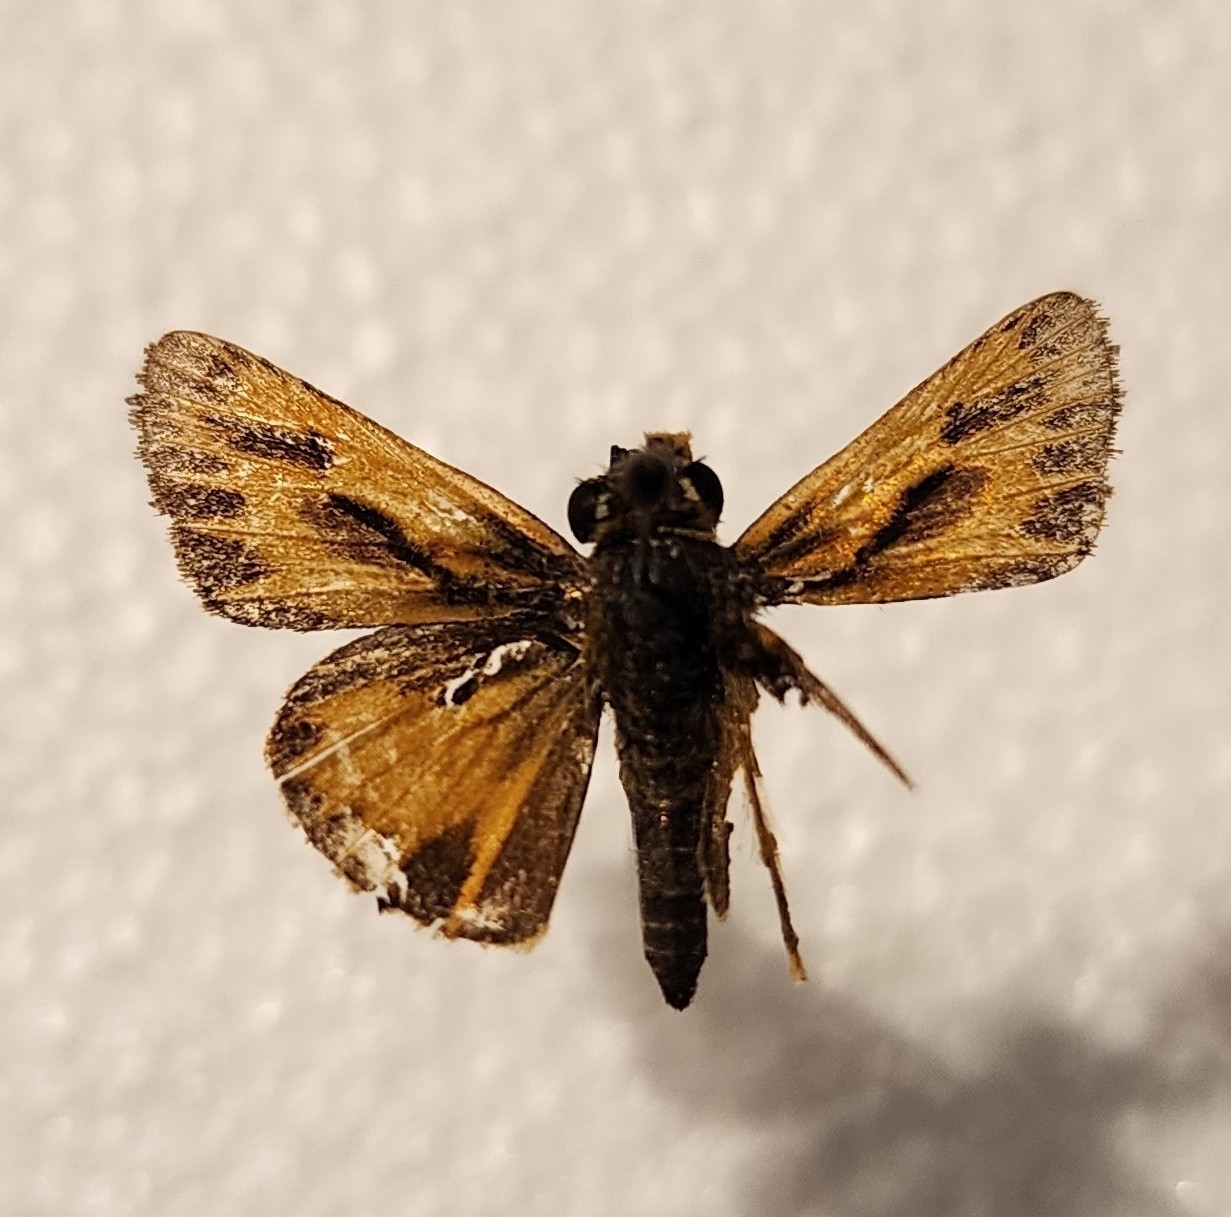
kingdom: Animalia
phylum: Arthropoda
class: Insecta
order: Lepidoptera
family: Hesperiidae
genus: Hylephila
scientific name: Hylephila phyleus
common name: Fiery skipper
